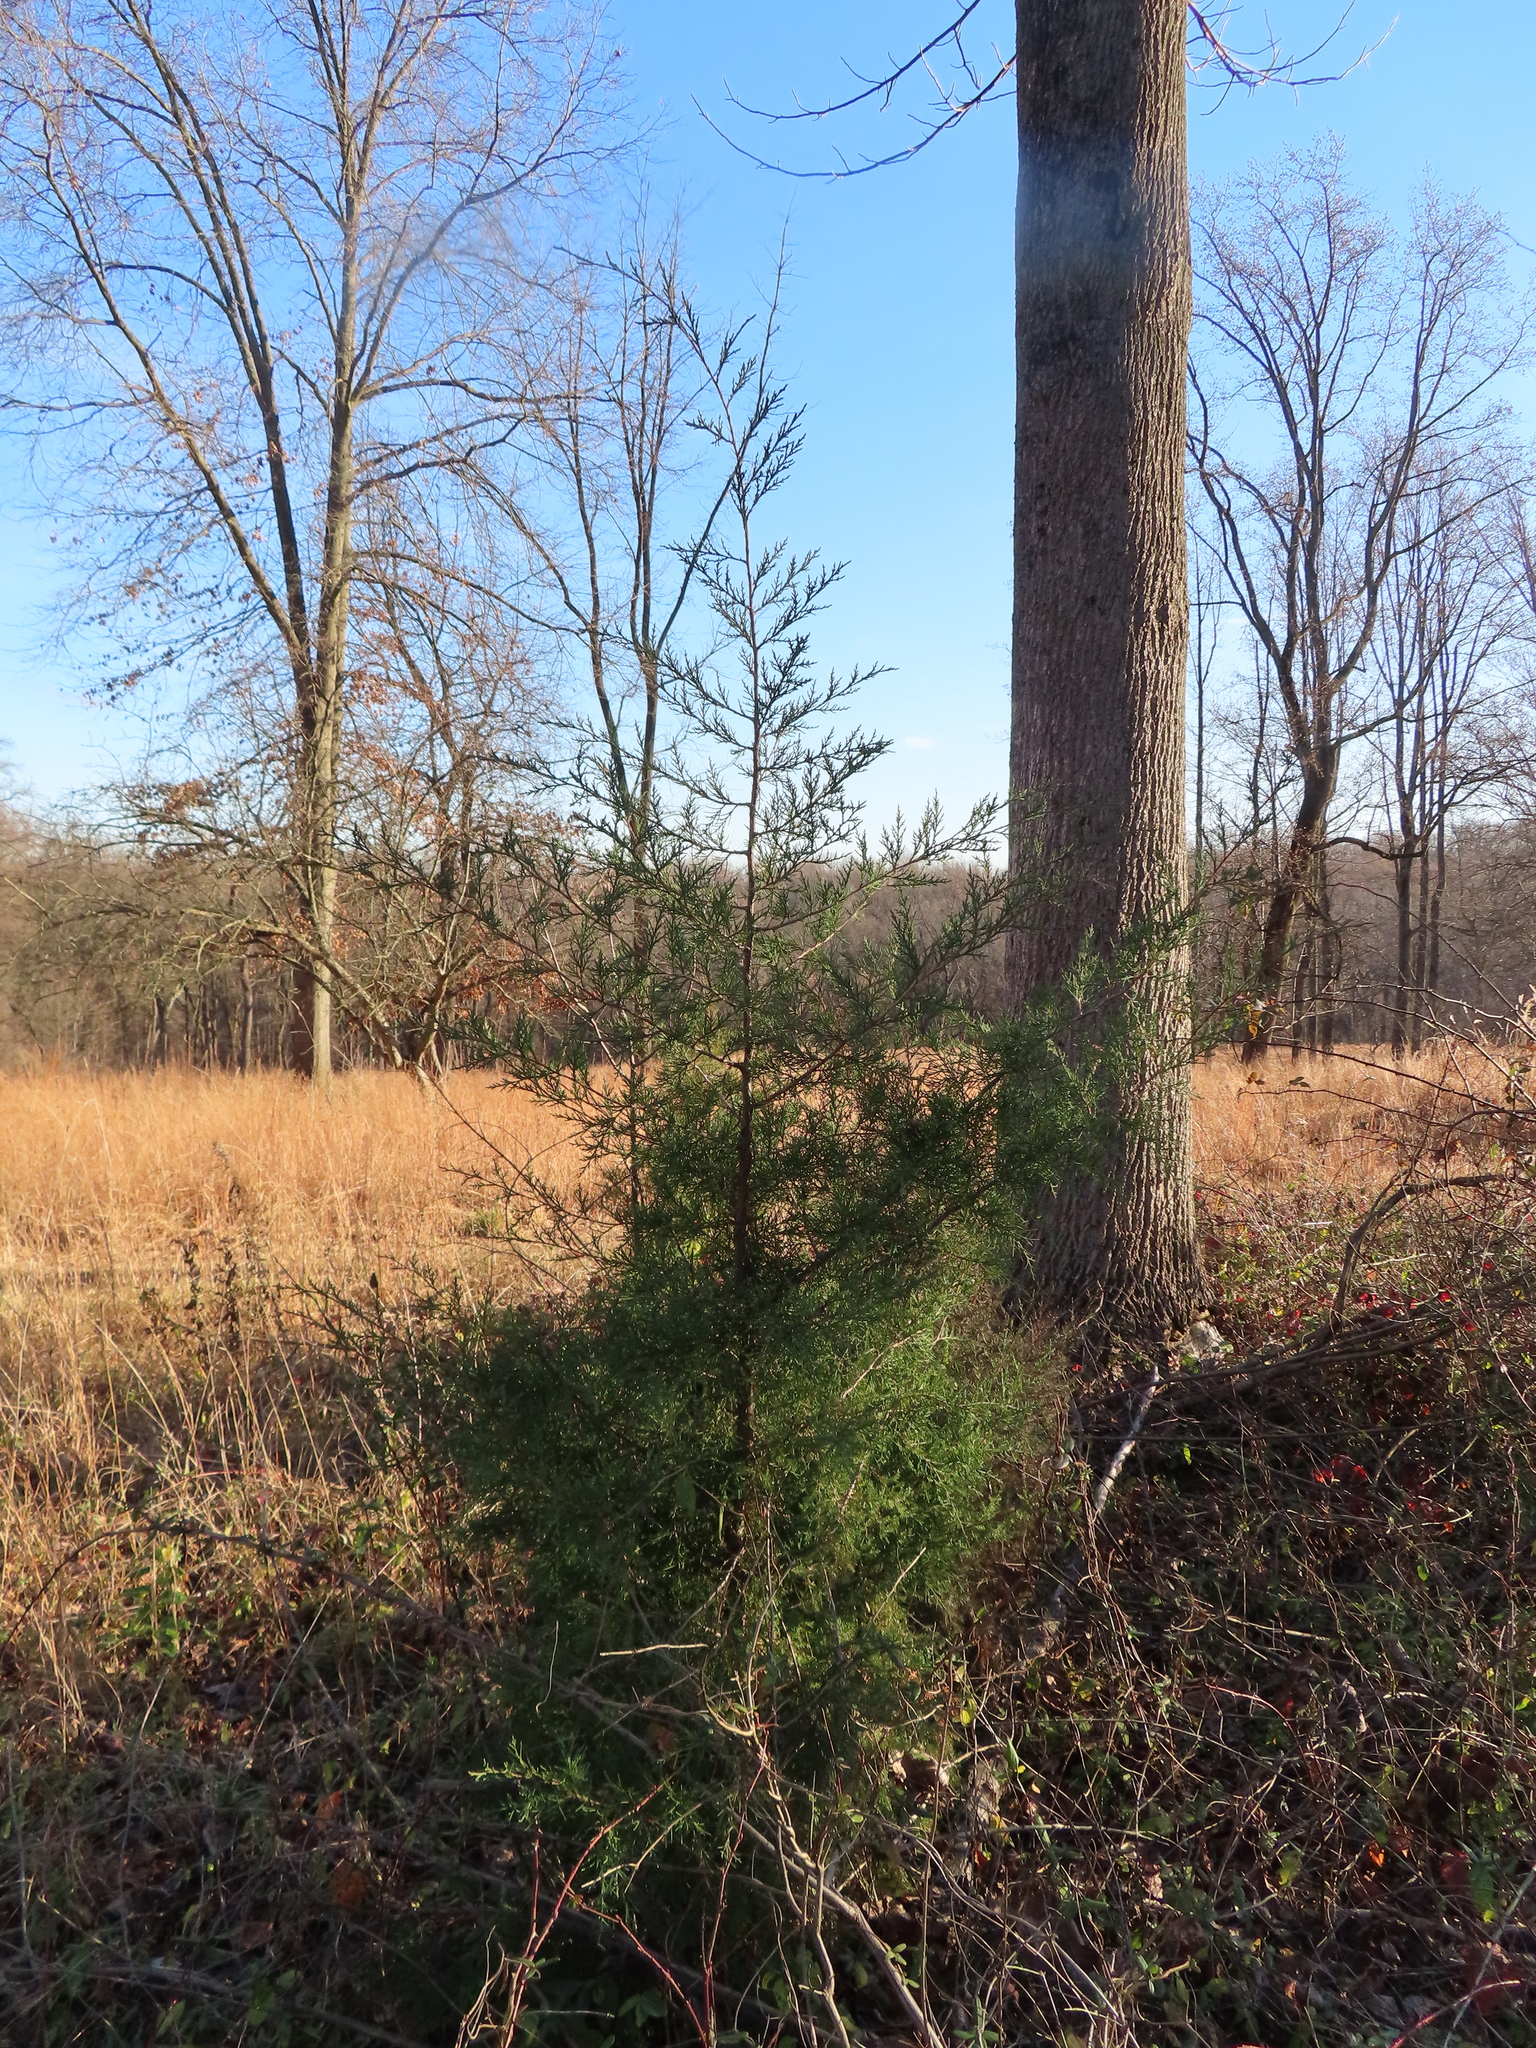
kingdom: Plantae
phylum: Tracheophyta
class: Pinopsida
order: Pinales
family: Cupressaceae
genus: Juniperus
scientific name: Juniperus virginiana
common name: Red juniper
